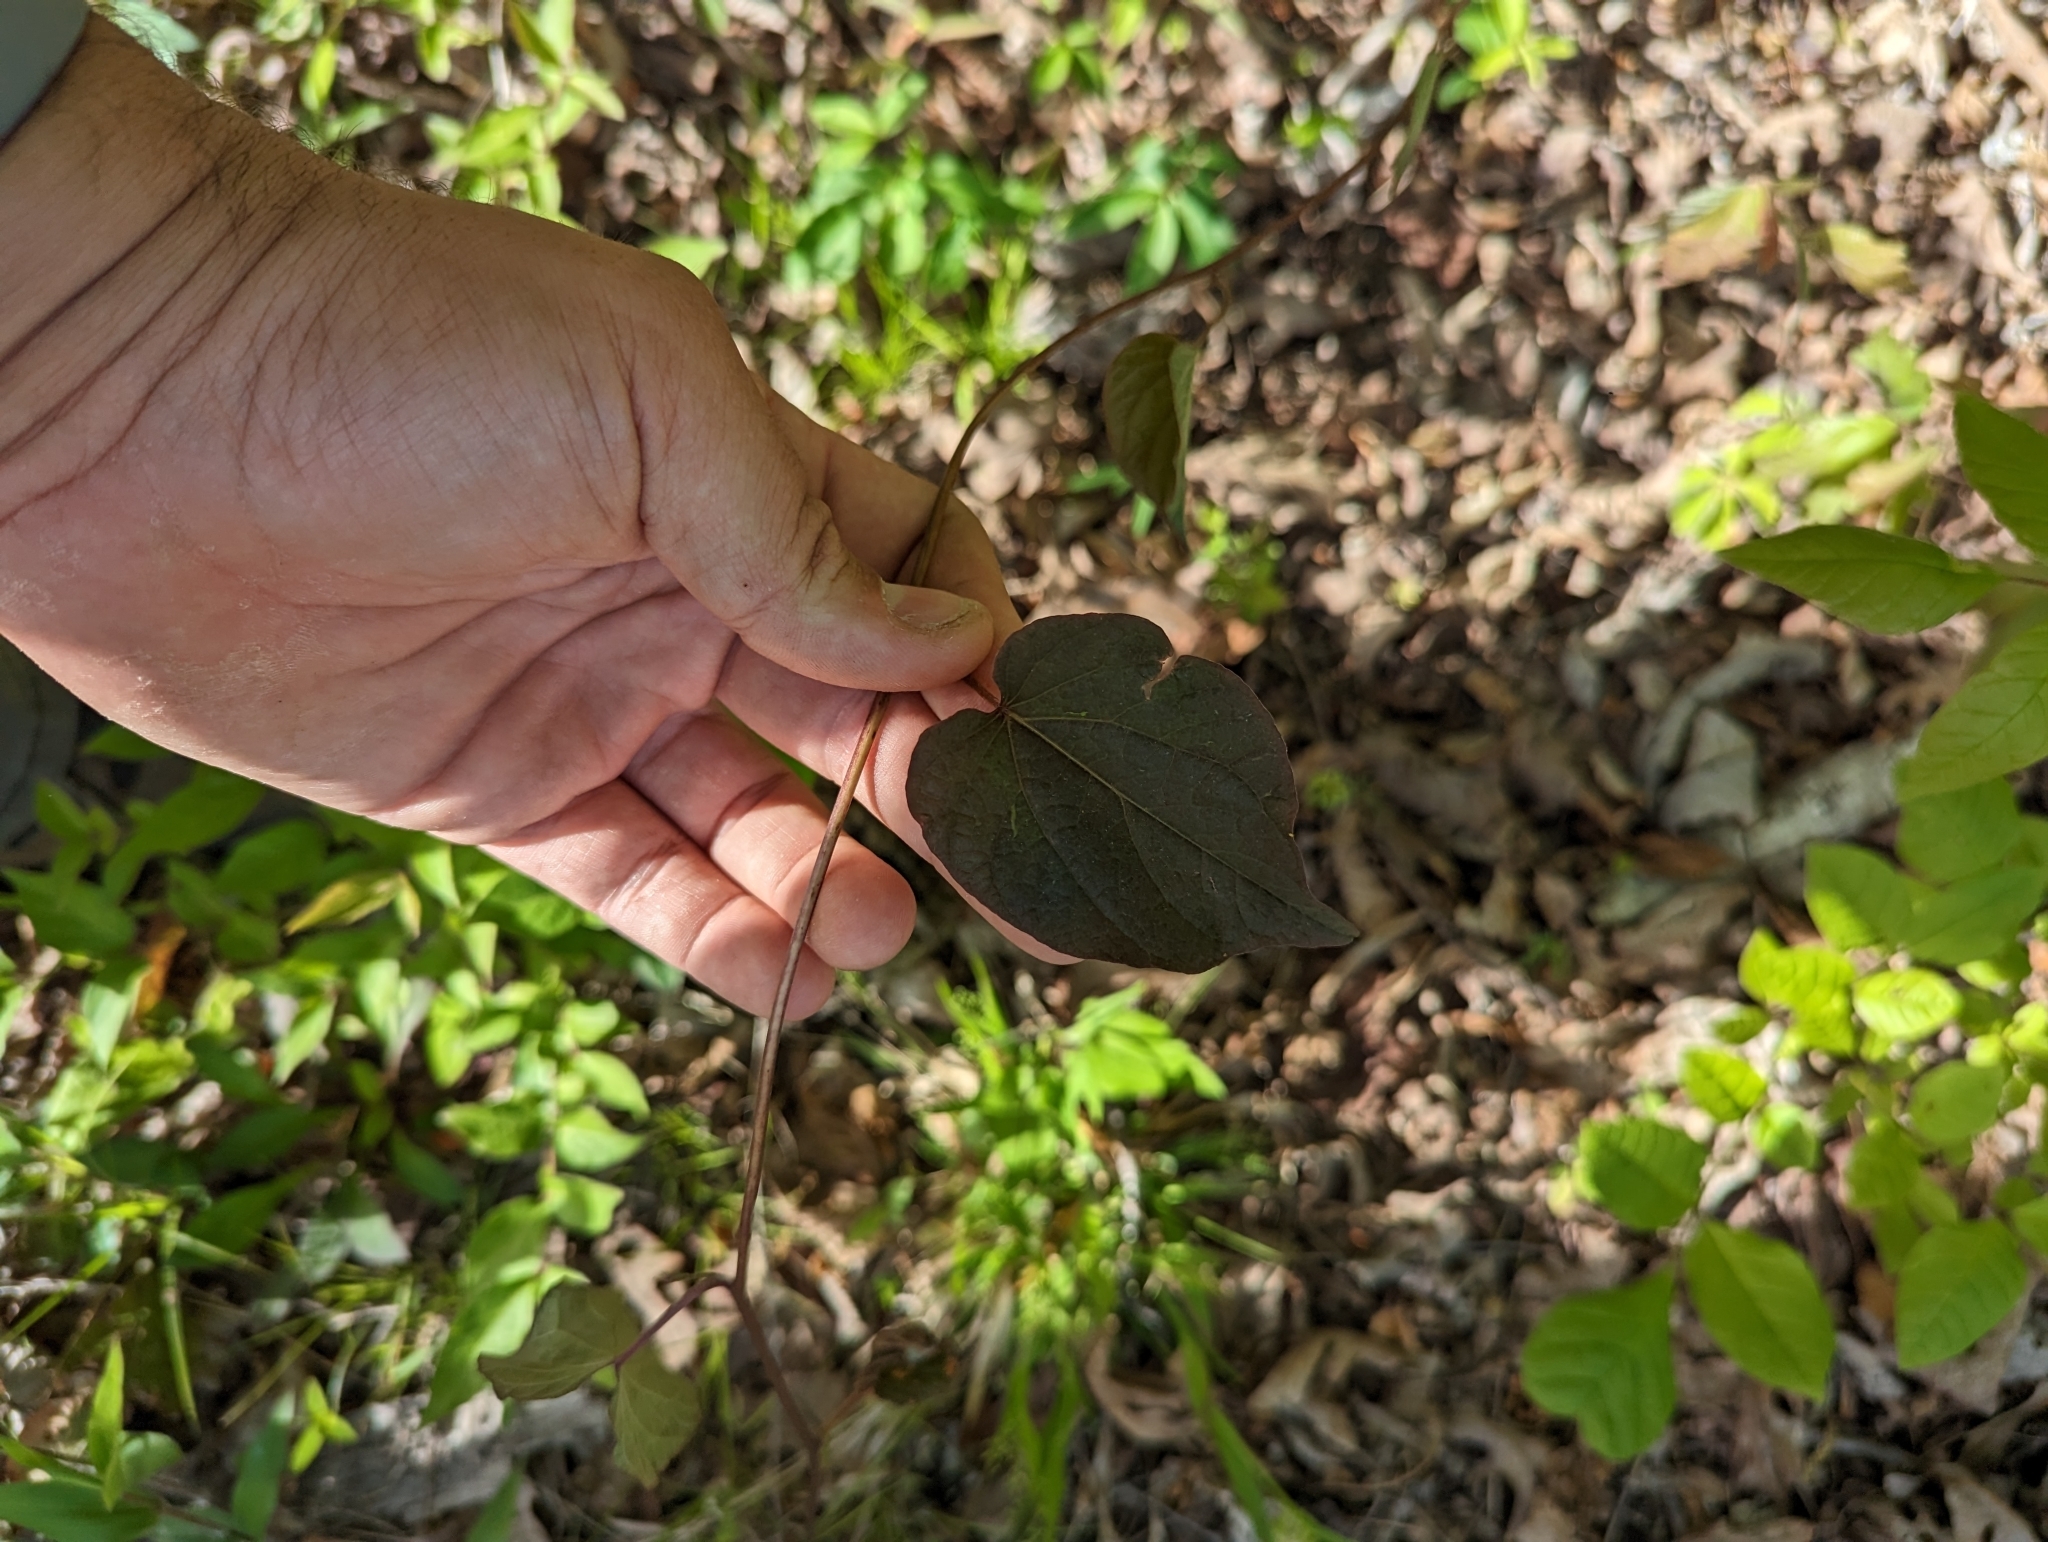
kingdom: Plantae
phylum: Tracheophyta
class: Magnoliopsida
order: Solanales
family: Convolvulaceae
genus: Ipomoea
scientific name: Ipomoea pandurata
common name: Man-of-the-earth
